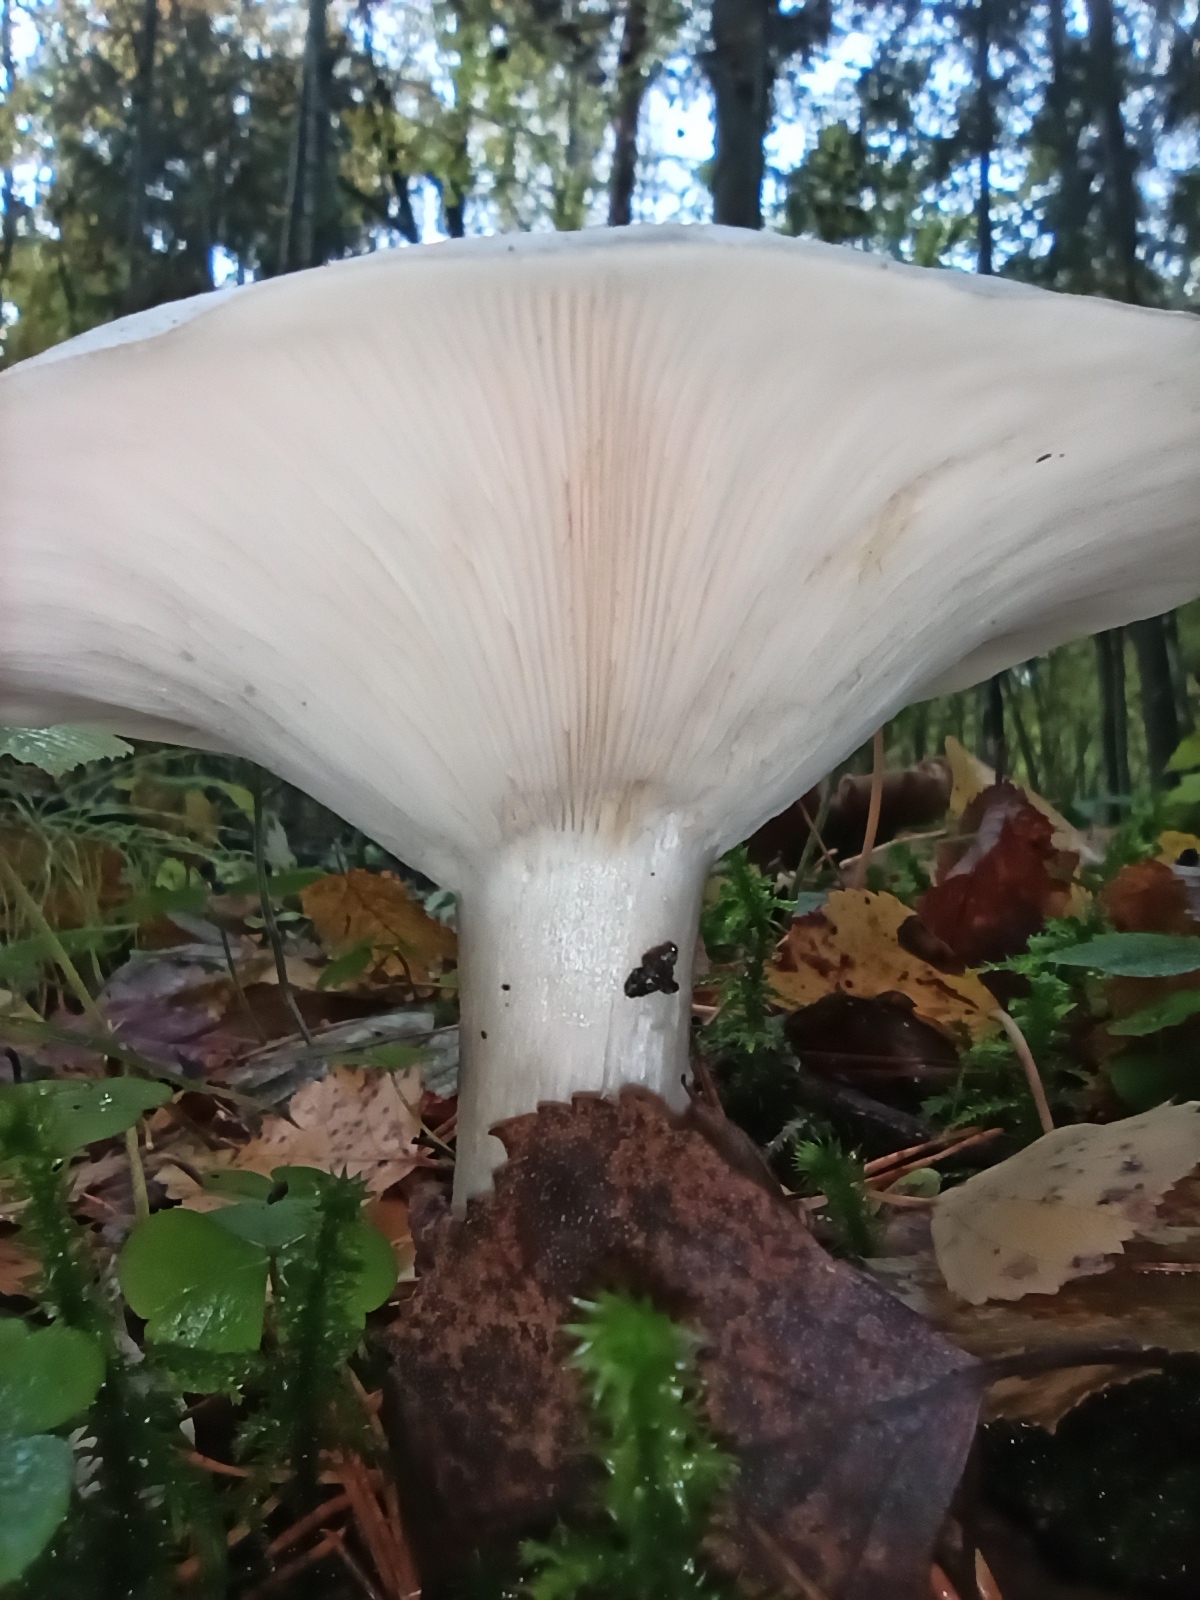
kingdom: Fungi
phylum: Basidiomycota
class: Agaricomycetes
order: Agaricales
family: Tricholomataceae
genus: Clitocybe
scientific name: Clitocybe nebularis
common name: Clouded agaric
